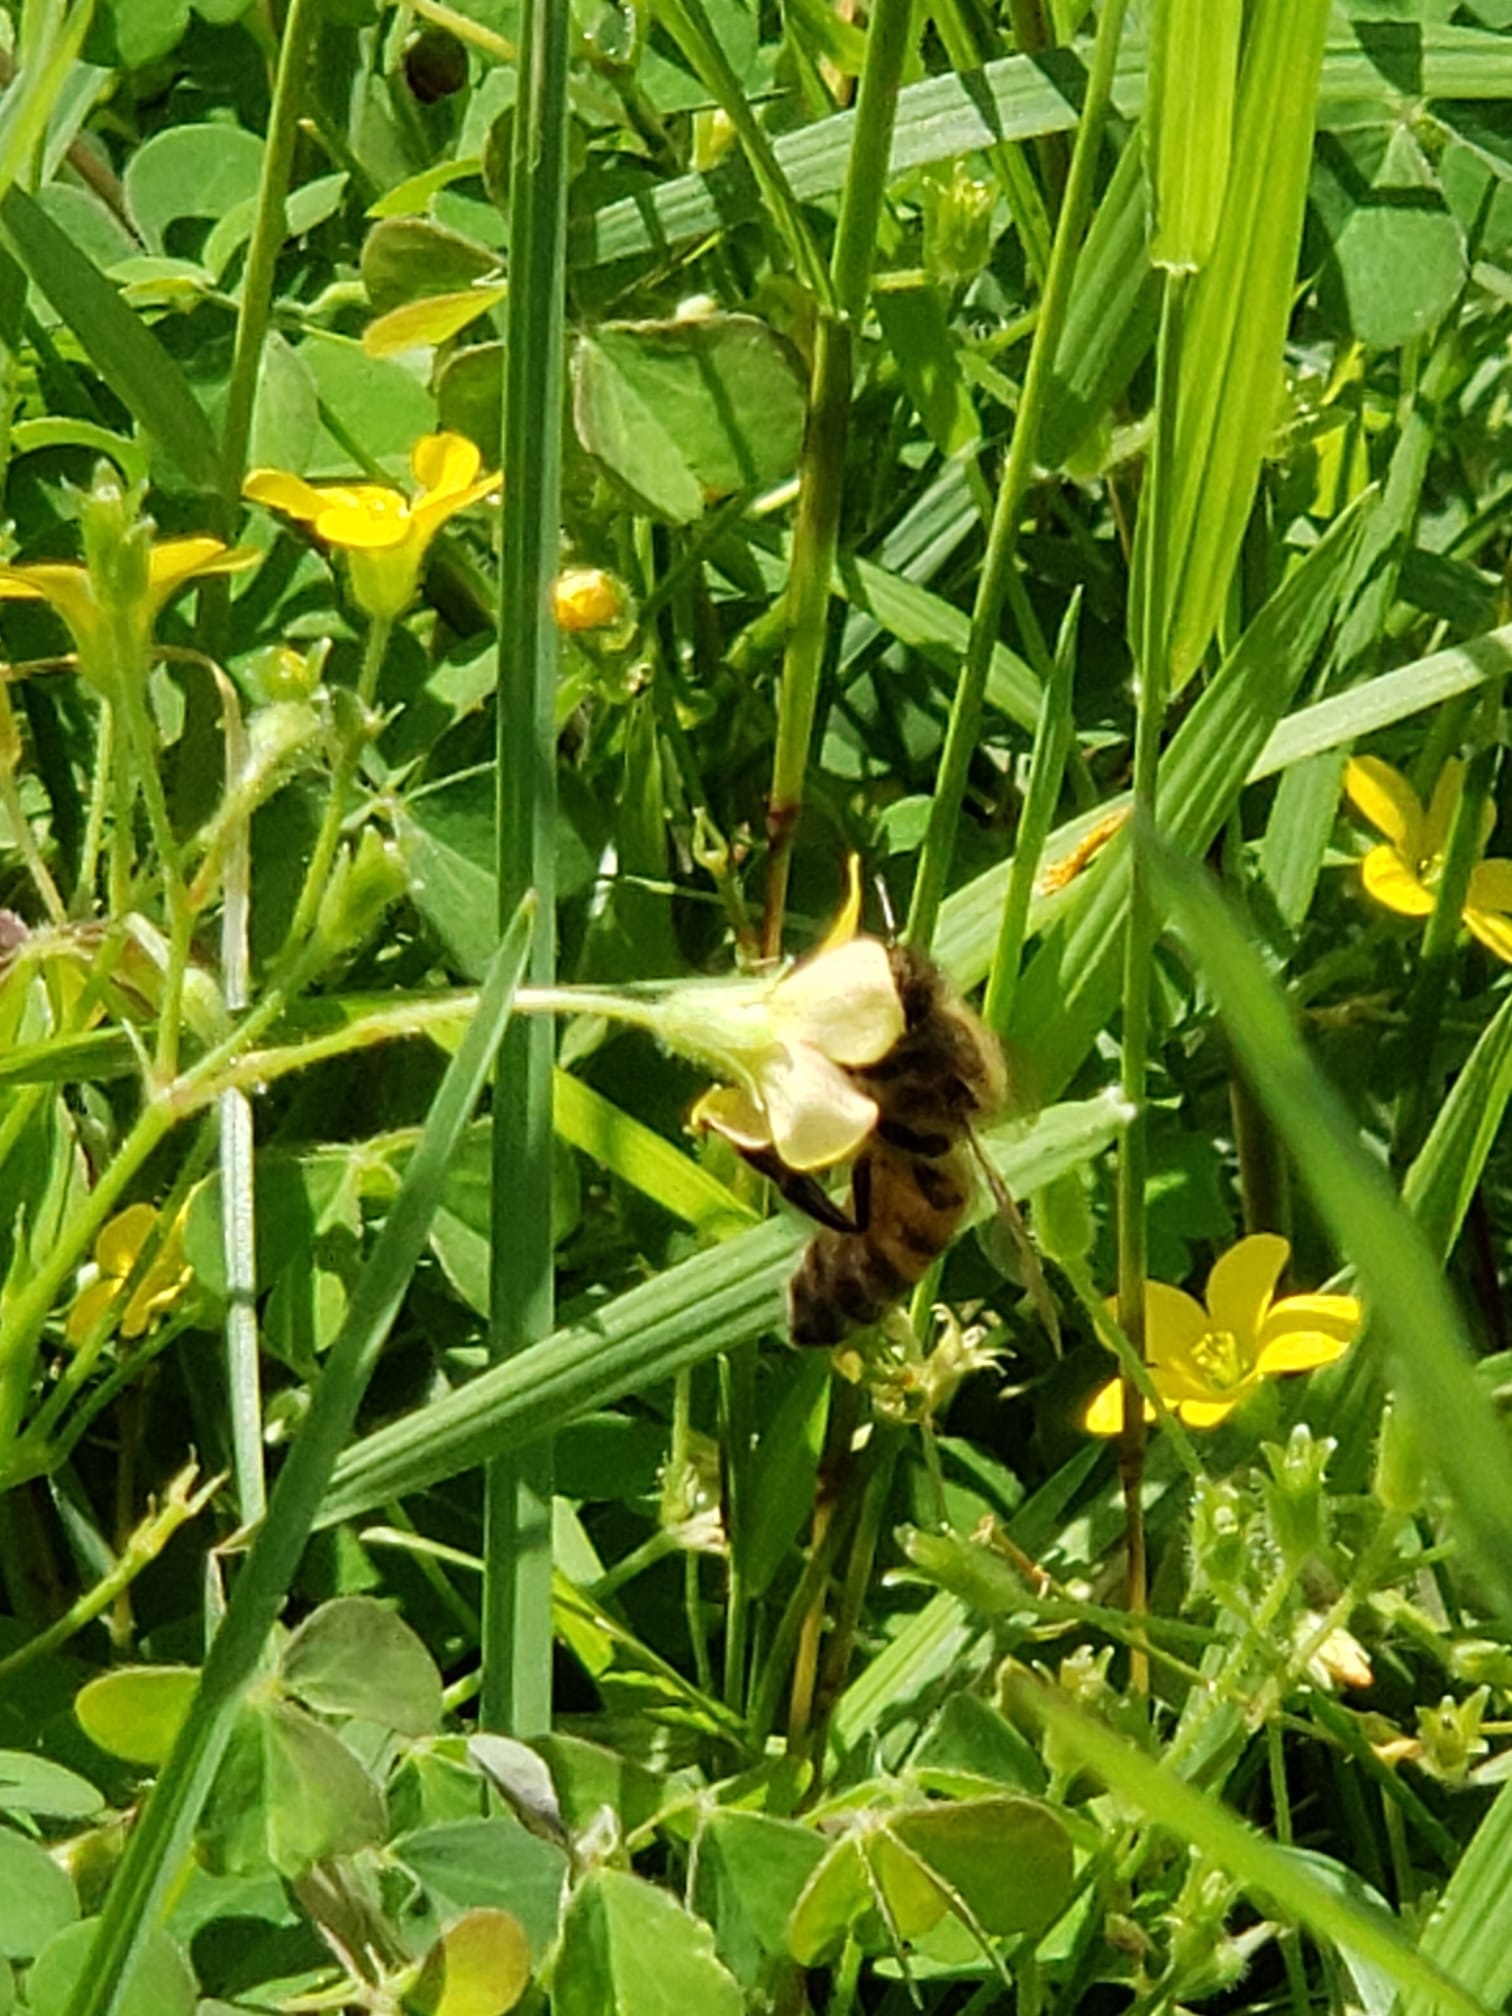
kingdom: Animalia
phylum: Arthropoda
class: Insecta
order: Hymenoptera
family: Apidae
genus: Apis
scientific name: Apis mellifera
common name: Honey bee
